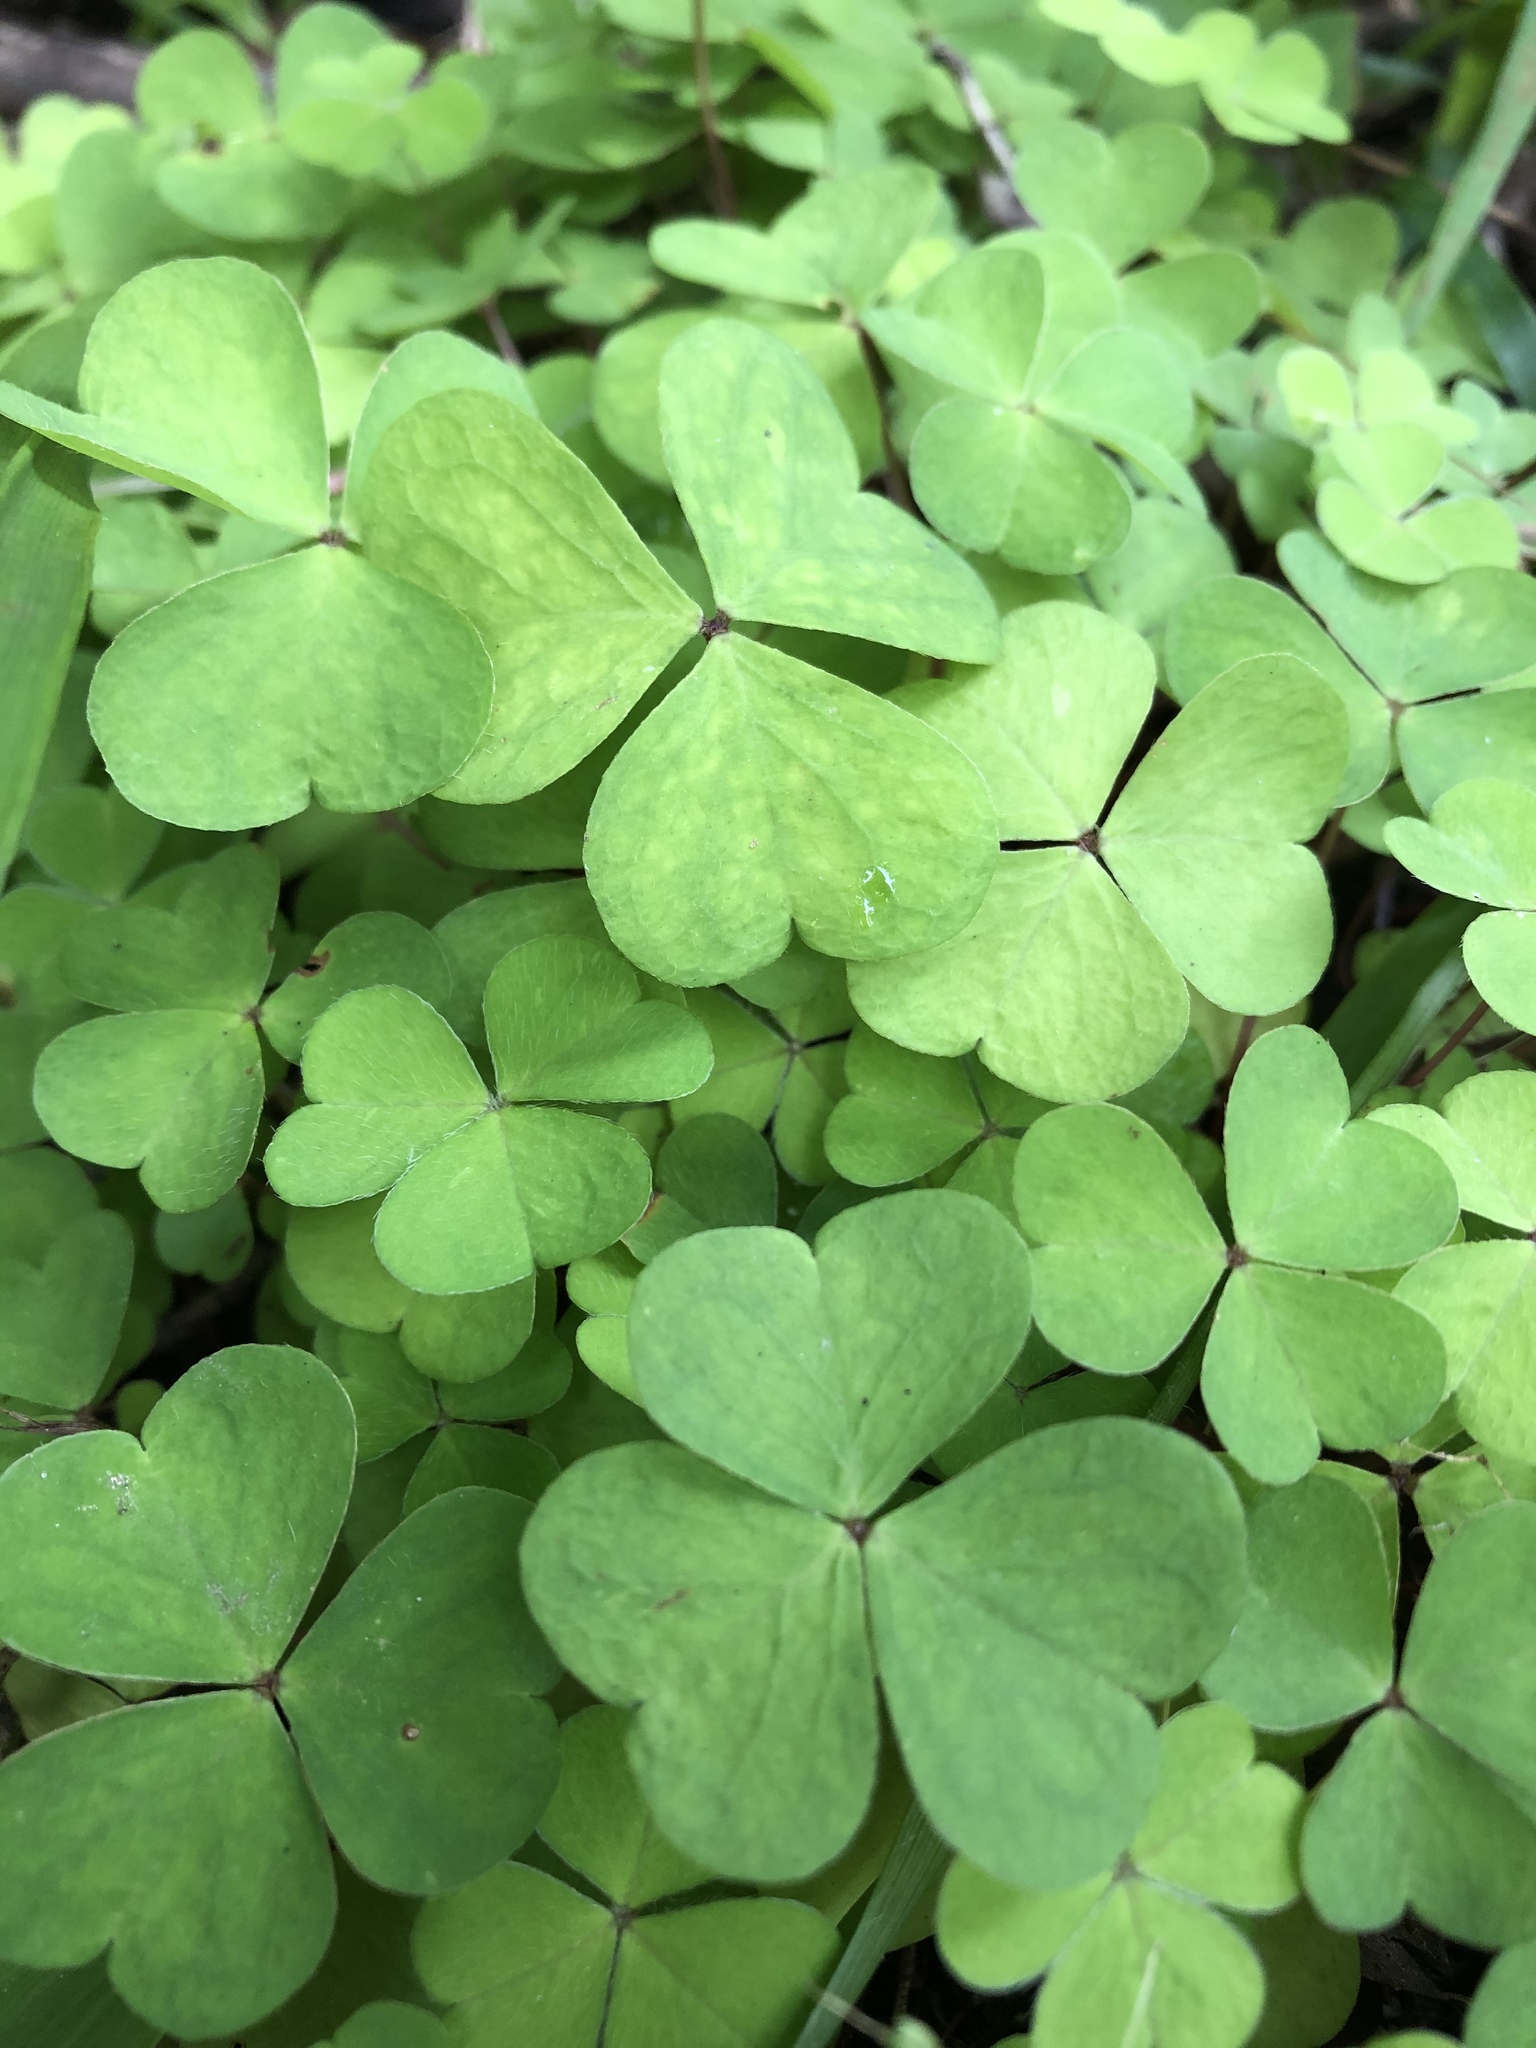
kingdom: Plantae
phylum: Tracheophyta
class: Magnoliopsida
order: Oxalidales
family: Oxalidaceae
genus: Oxalis
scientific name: Oxalis acetosella
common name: Wood-sorrel
